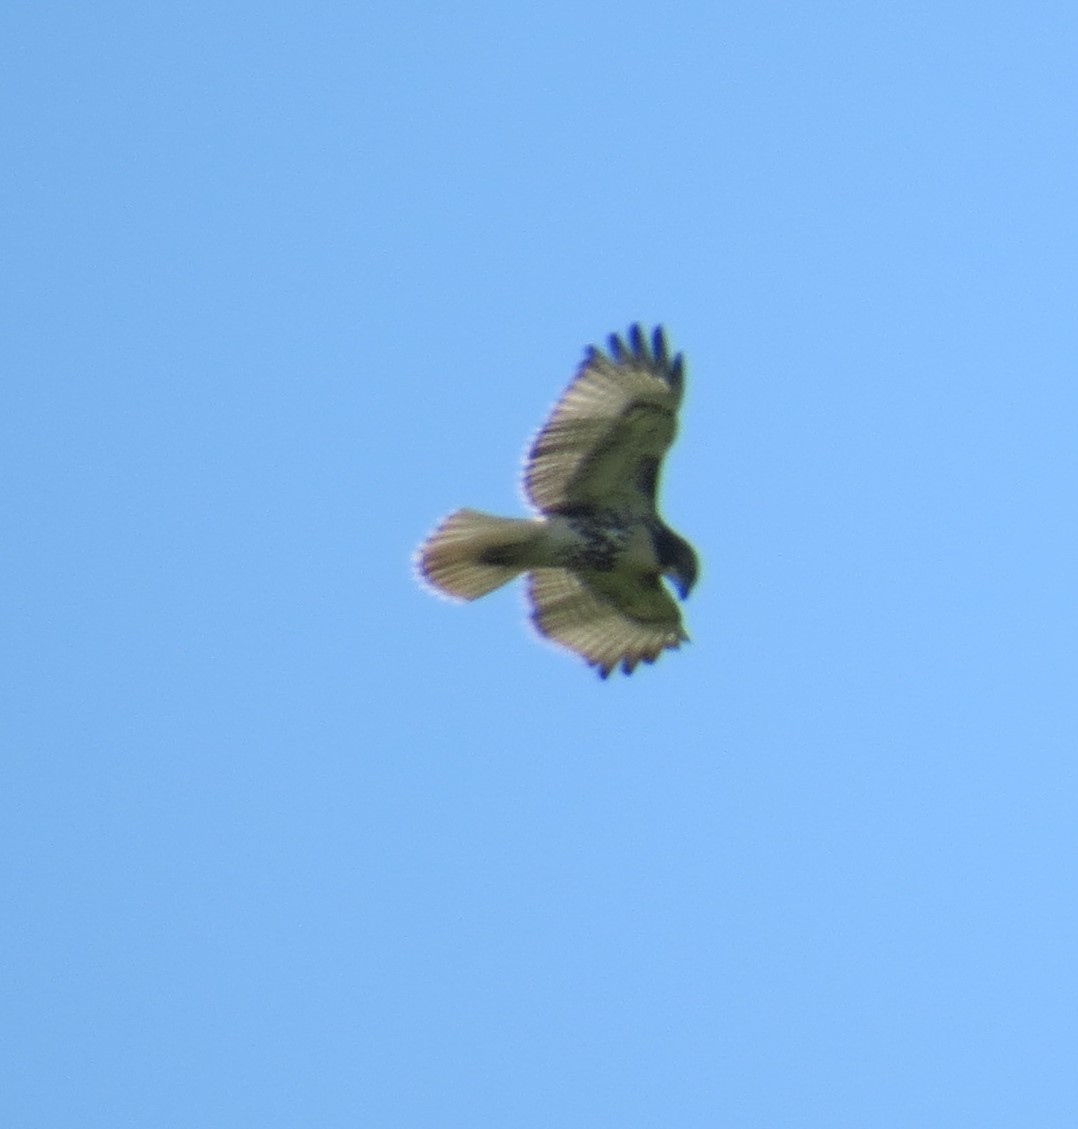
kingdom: Animalia
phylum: Chordata
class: Aves
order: Accipitriformes
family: Accipitridae
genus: Buteo
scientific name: Buteo jamaicensis
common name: Red-tailed hawk
